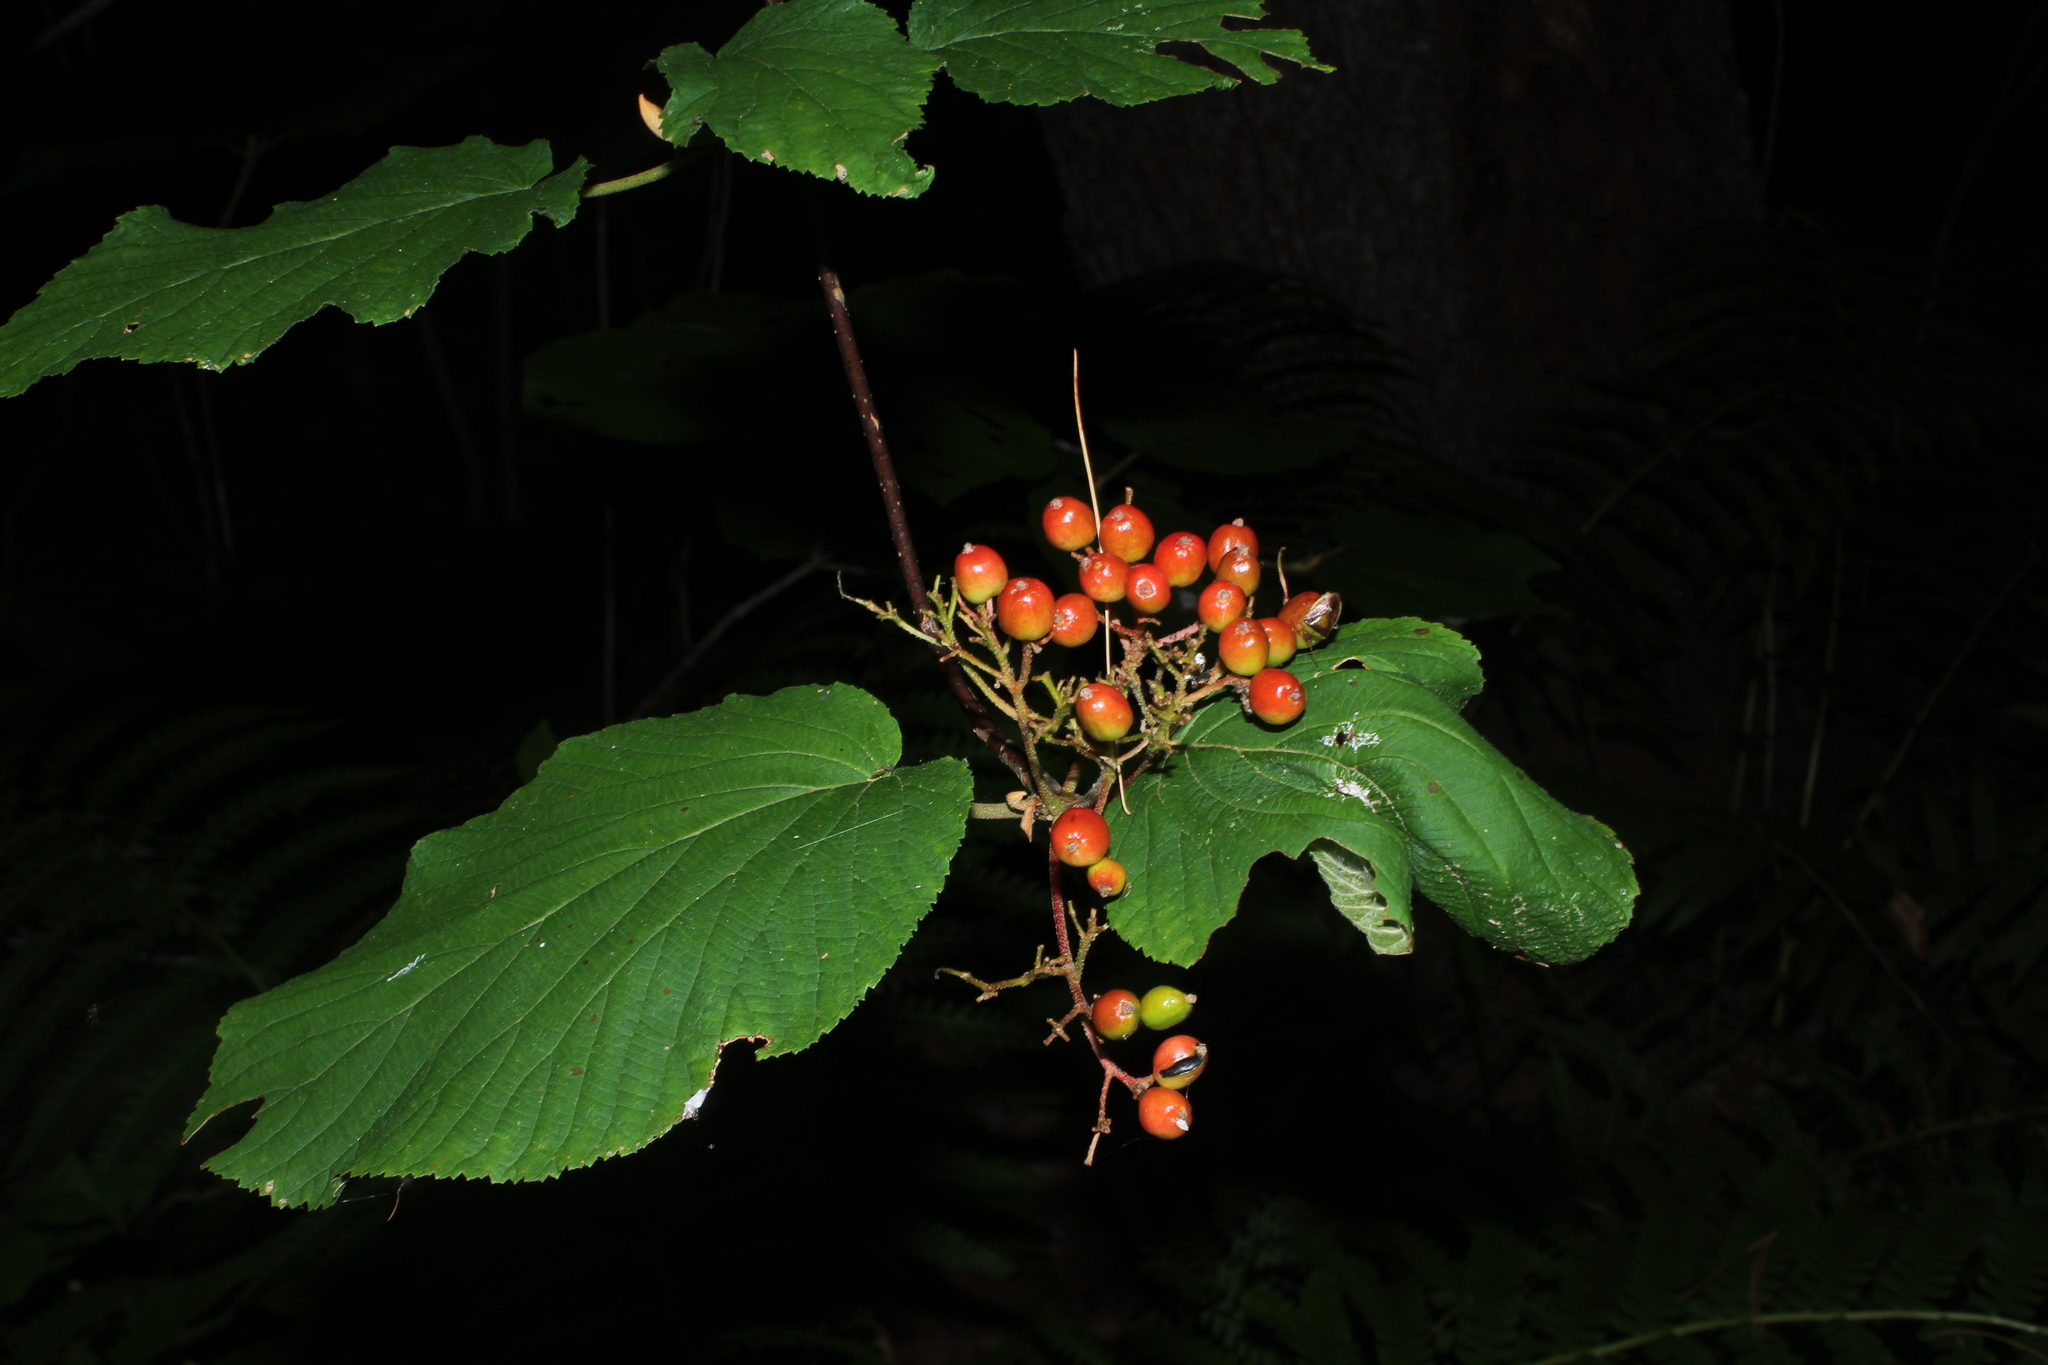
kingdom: Plantae
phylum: Tracheophyta
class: Magnoliopsida
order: Dipsacales
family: Viburnaceae
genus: Viburnum
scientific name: Viburnum lantanoides
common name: Hobblebush
